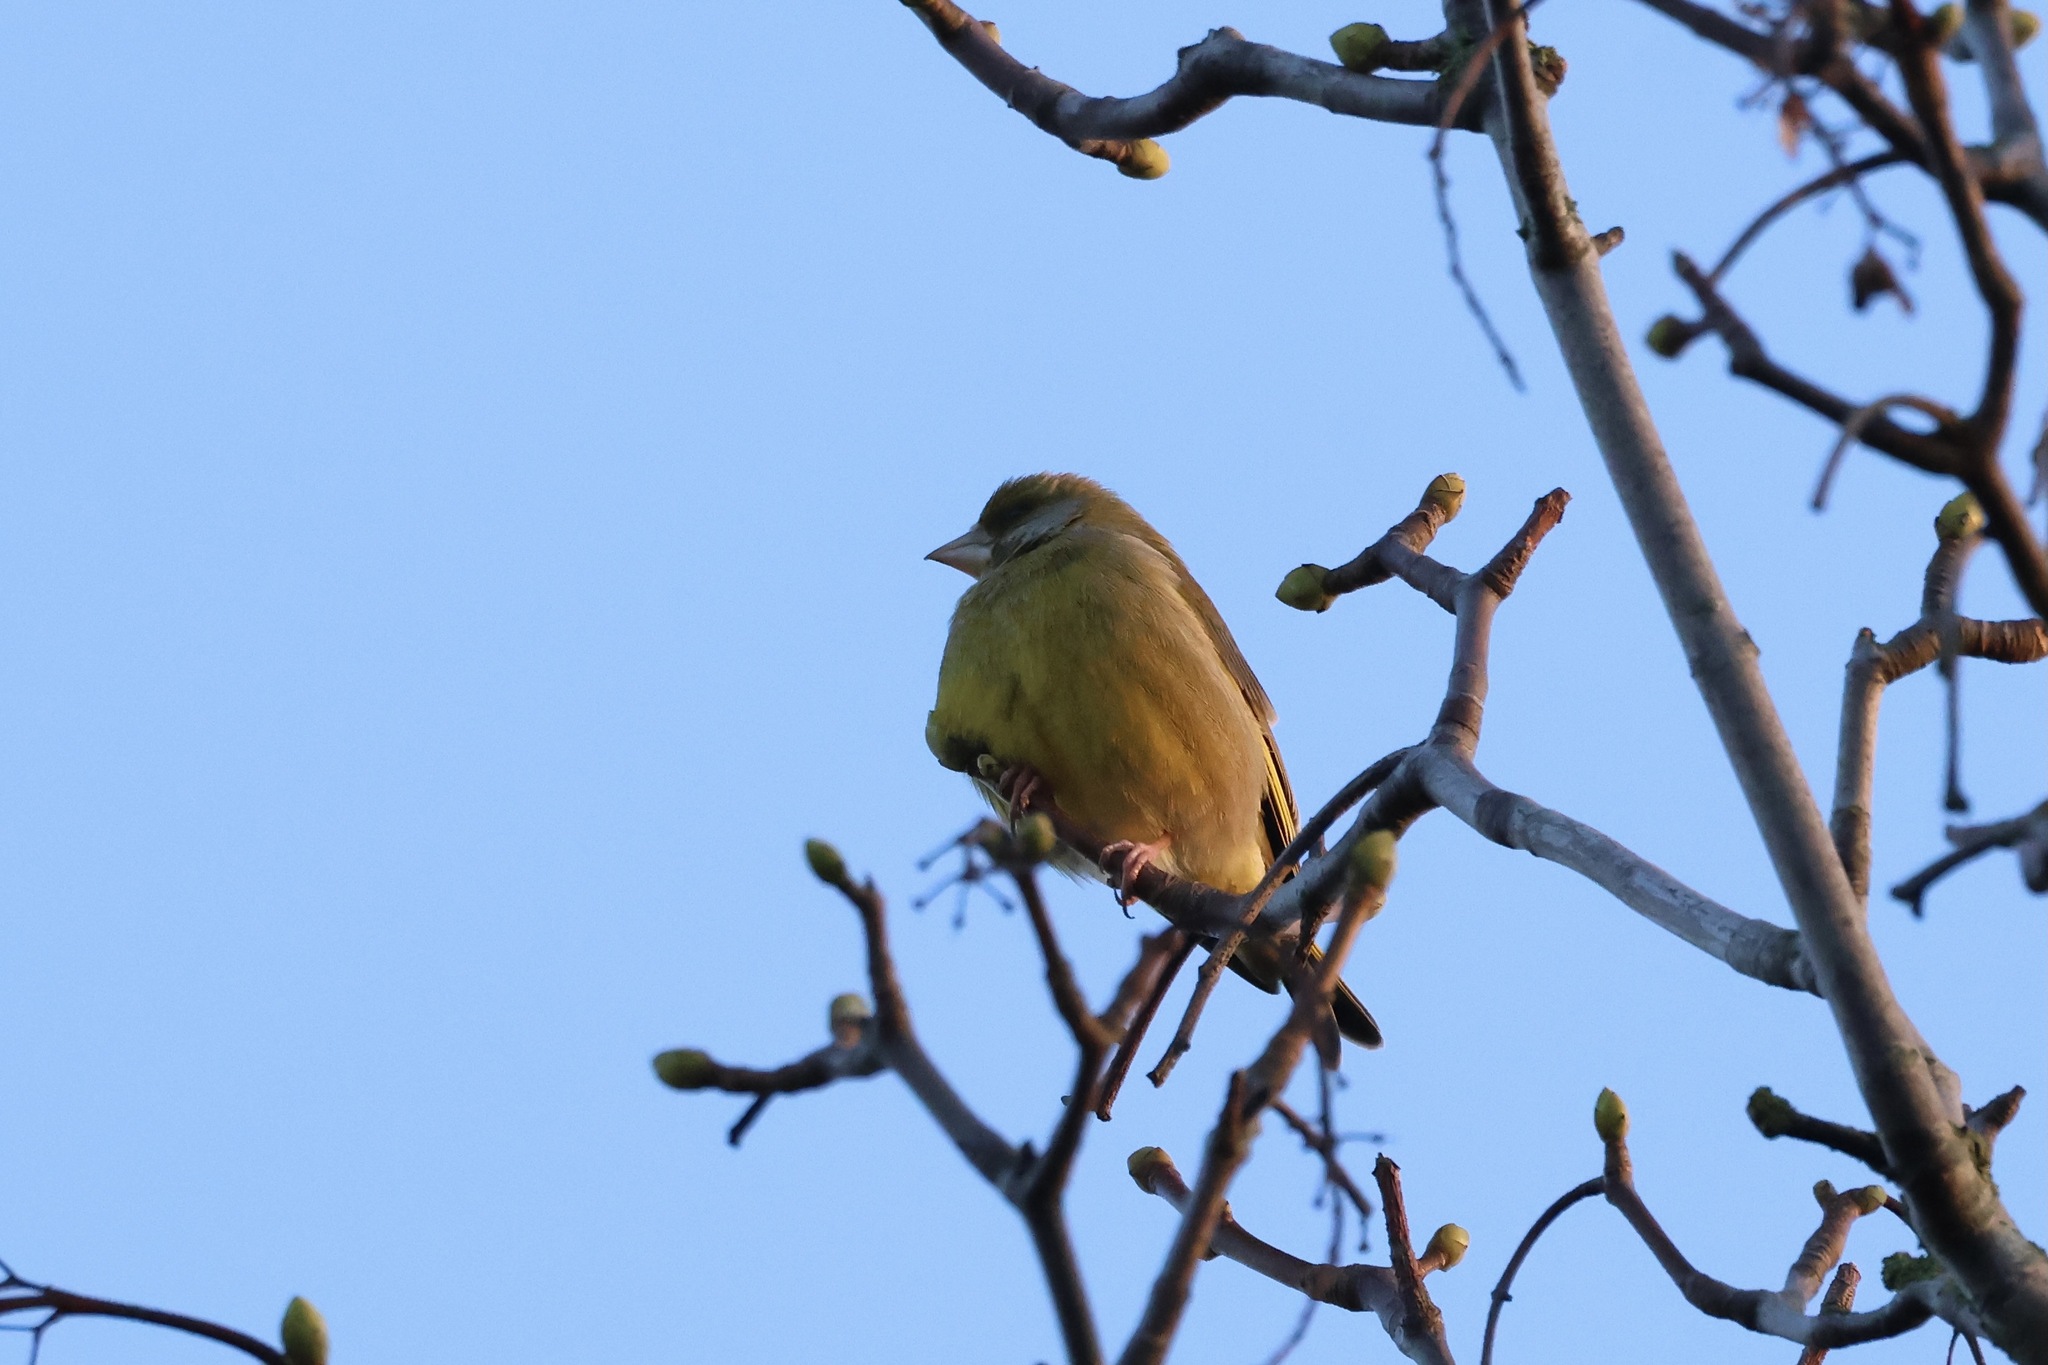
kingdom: Plantae
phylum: Tracheophyta
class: Liliopsida
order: Poales
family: Poaceae
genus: Chloris
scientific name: Chloris chloris
